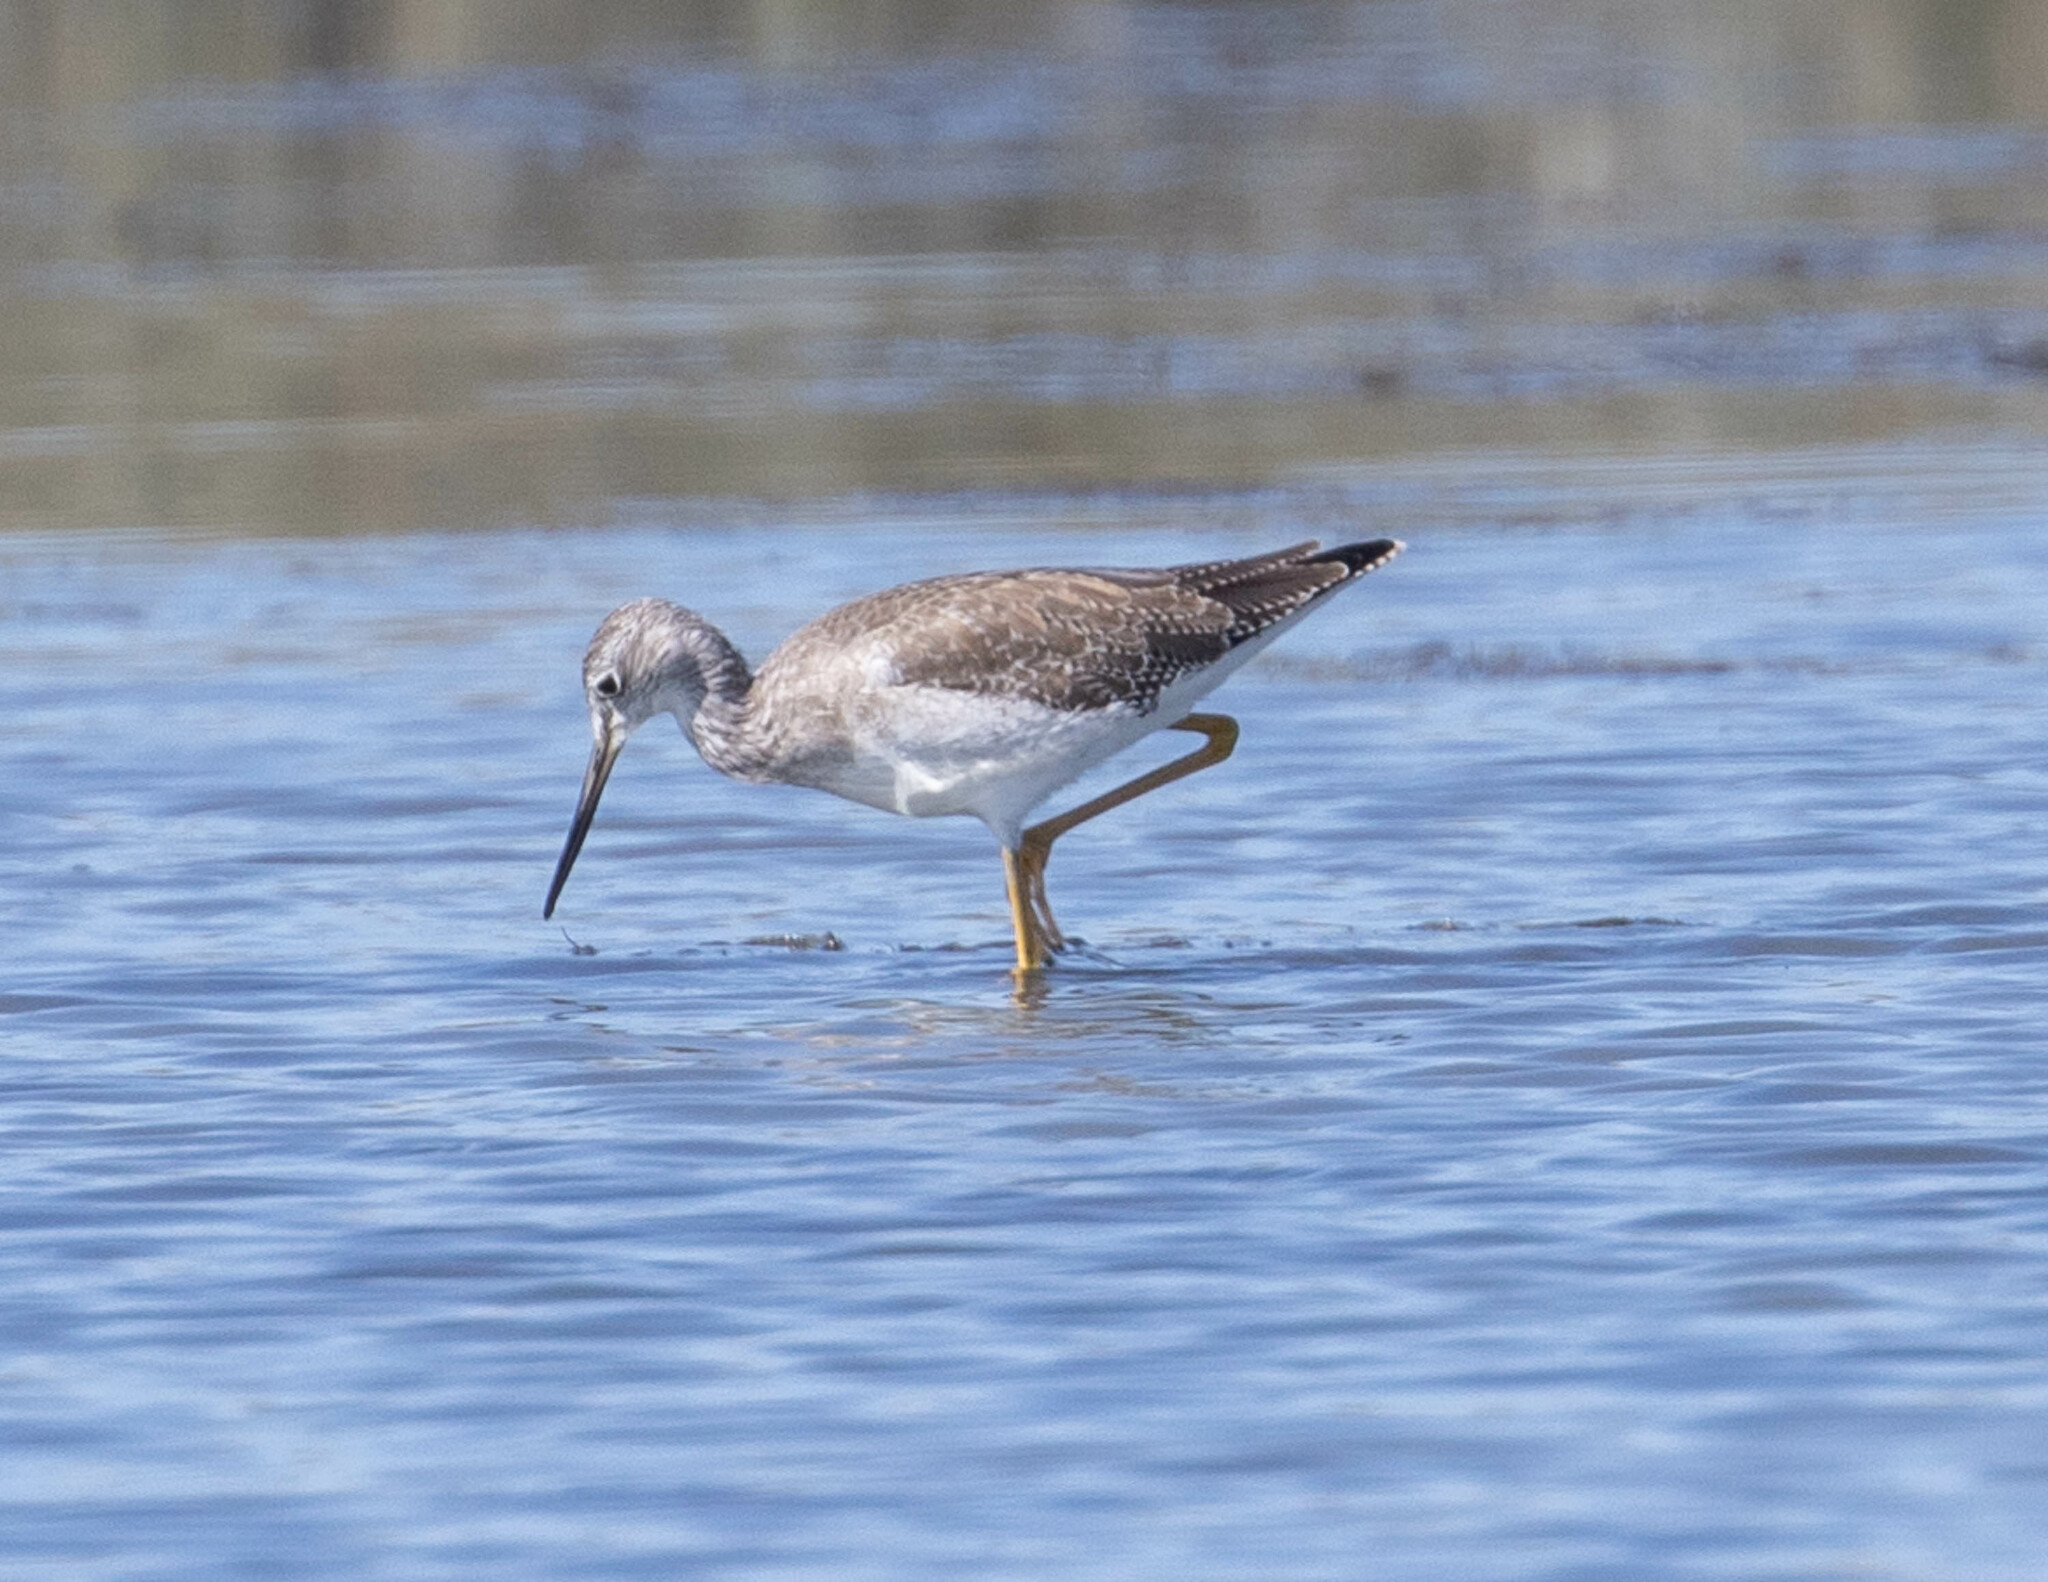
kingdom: Animalia
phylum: Chordata
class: Aves
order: Charadriiformes
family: Scolopacidae
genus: Tringa
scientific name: Tringa melanoleuca
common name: Greater yellowlegs
